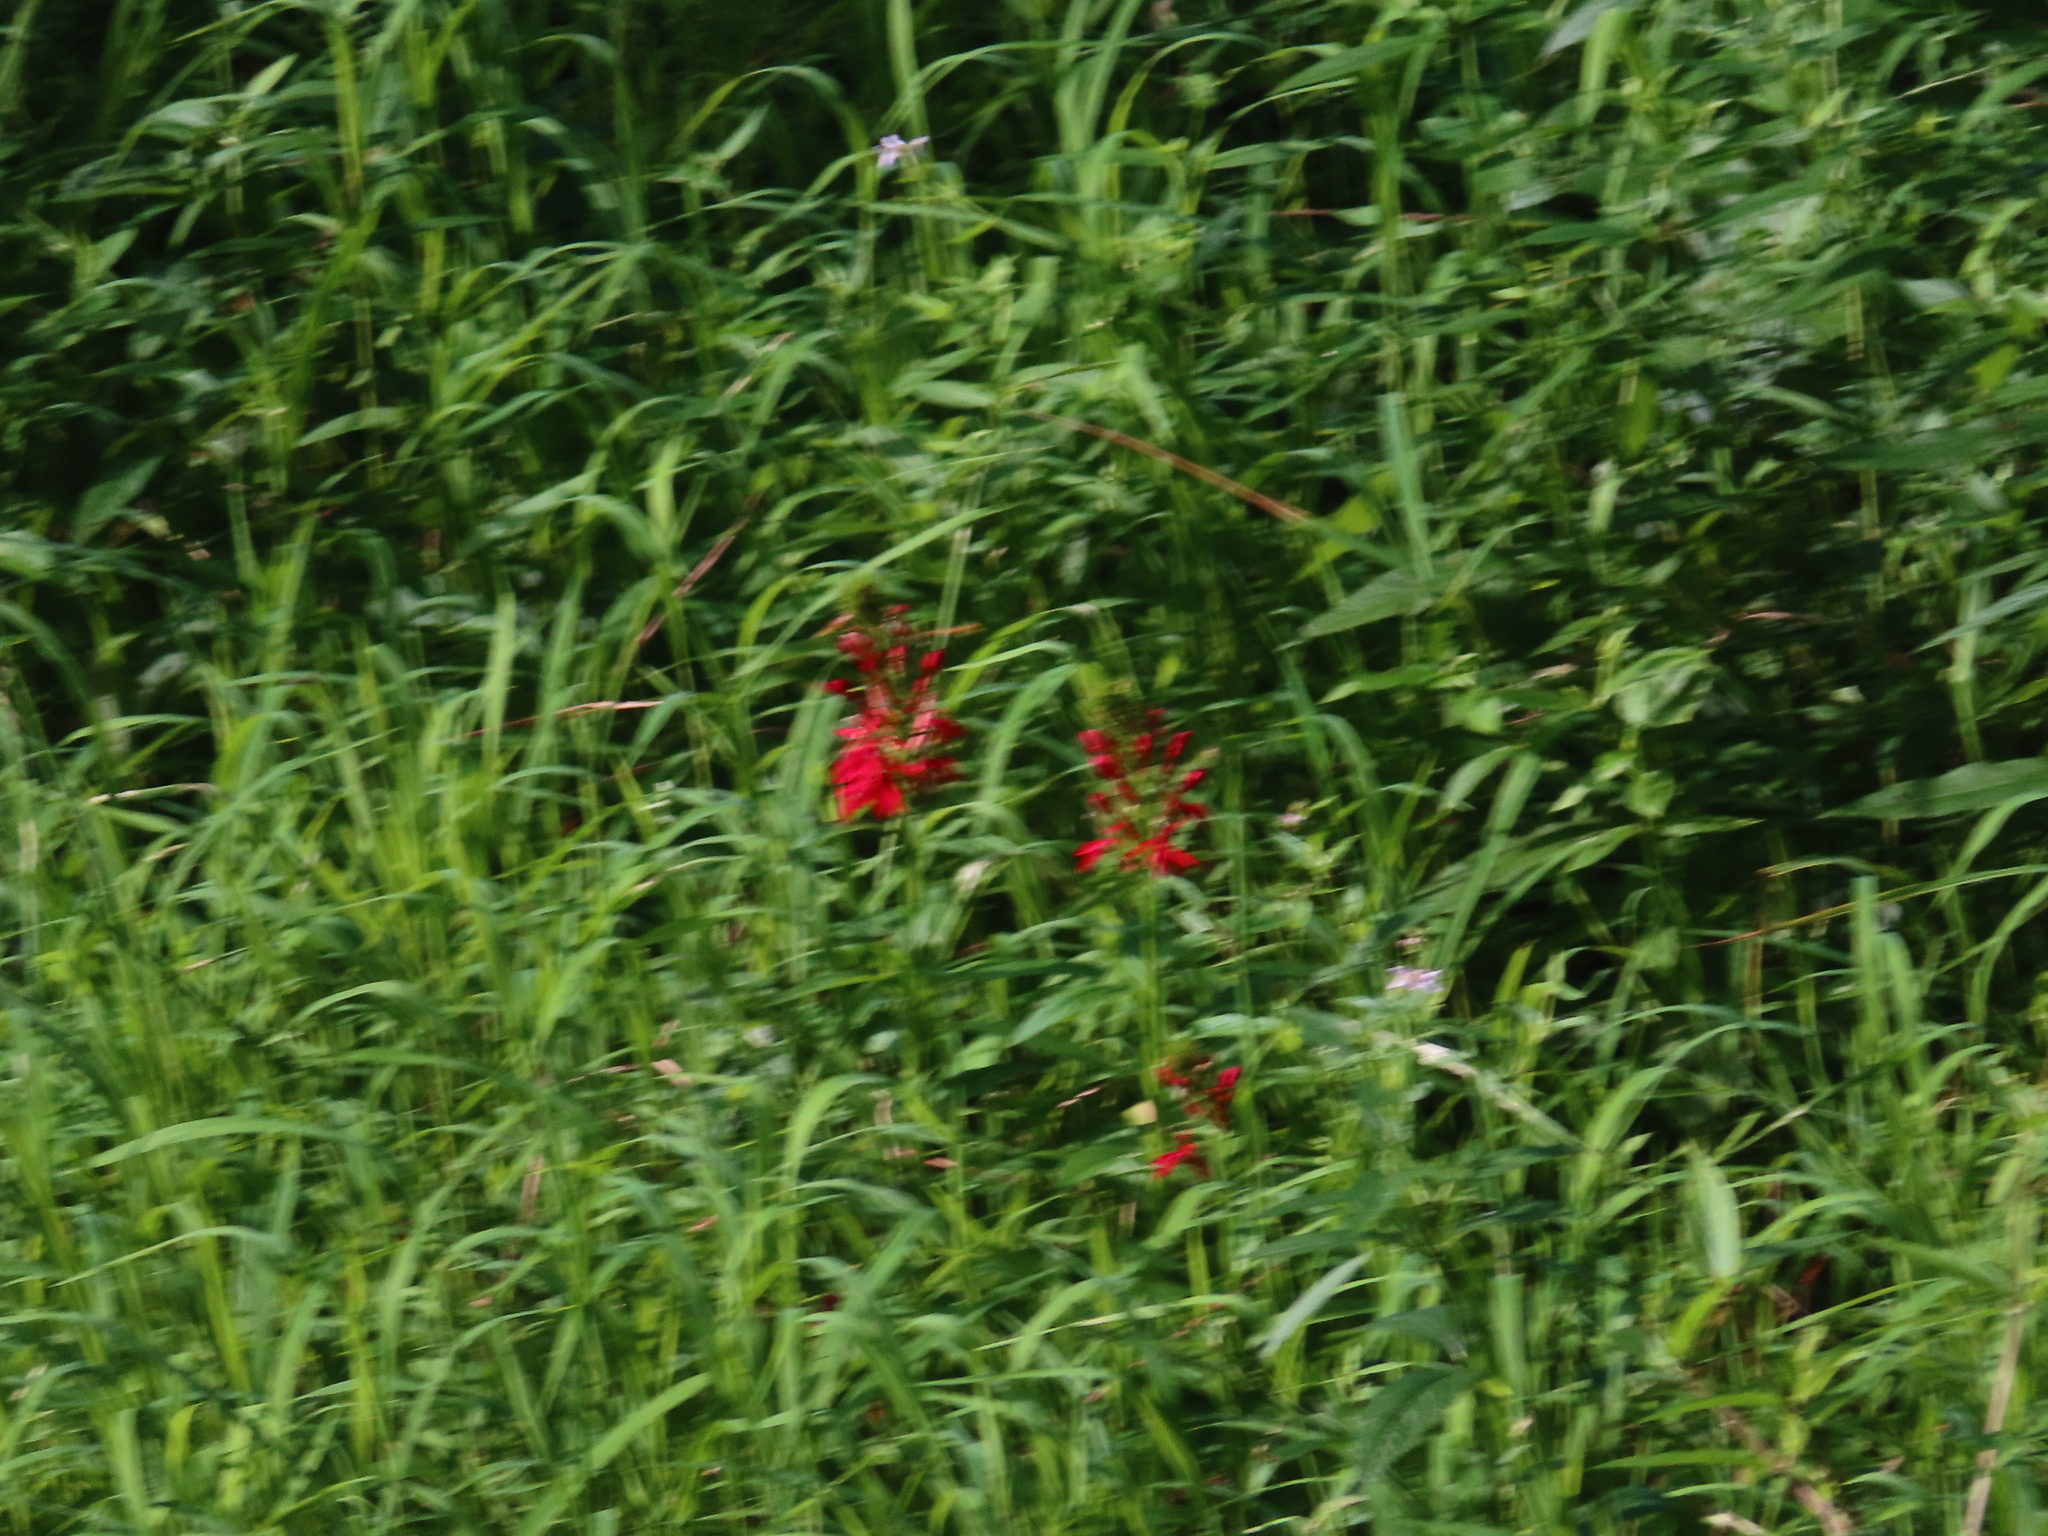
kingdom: Plantae
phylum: Tracheophyta
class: Magnoliopsida
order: Asterales
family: Campanulaceae
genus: Lobelia
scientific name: Lobelia cardinalis
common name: Cardinal flower
